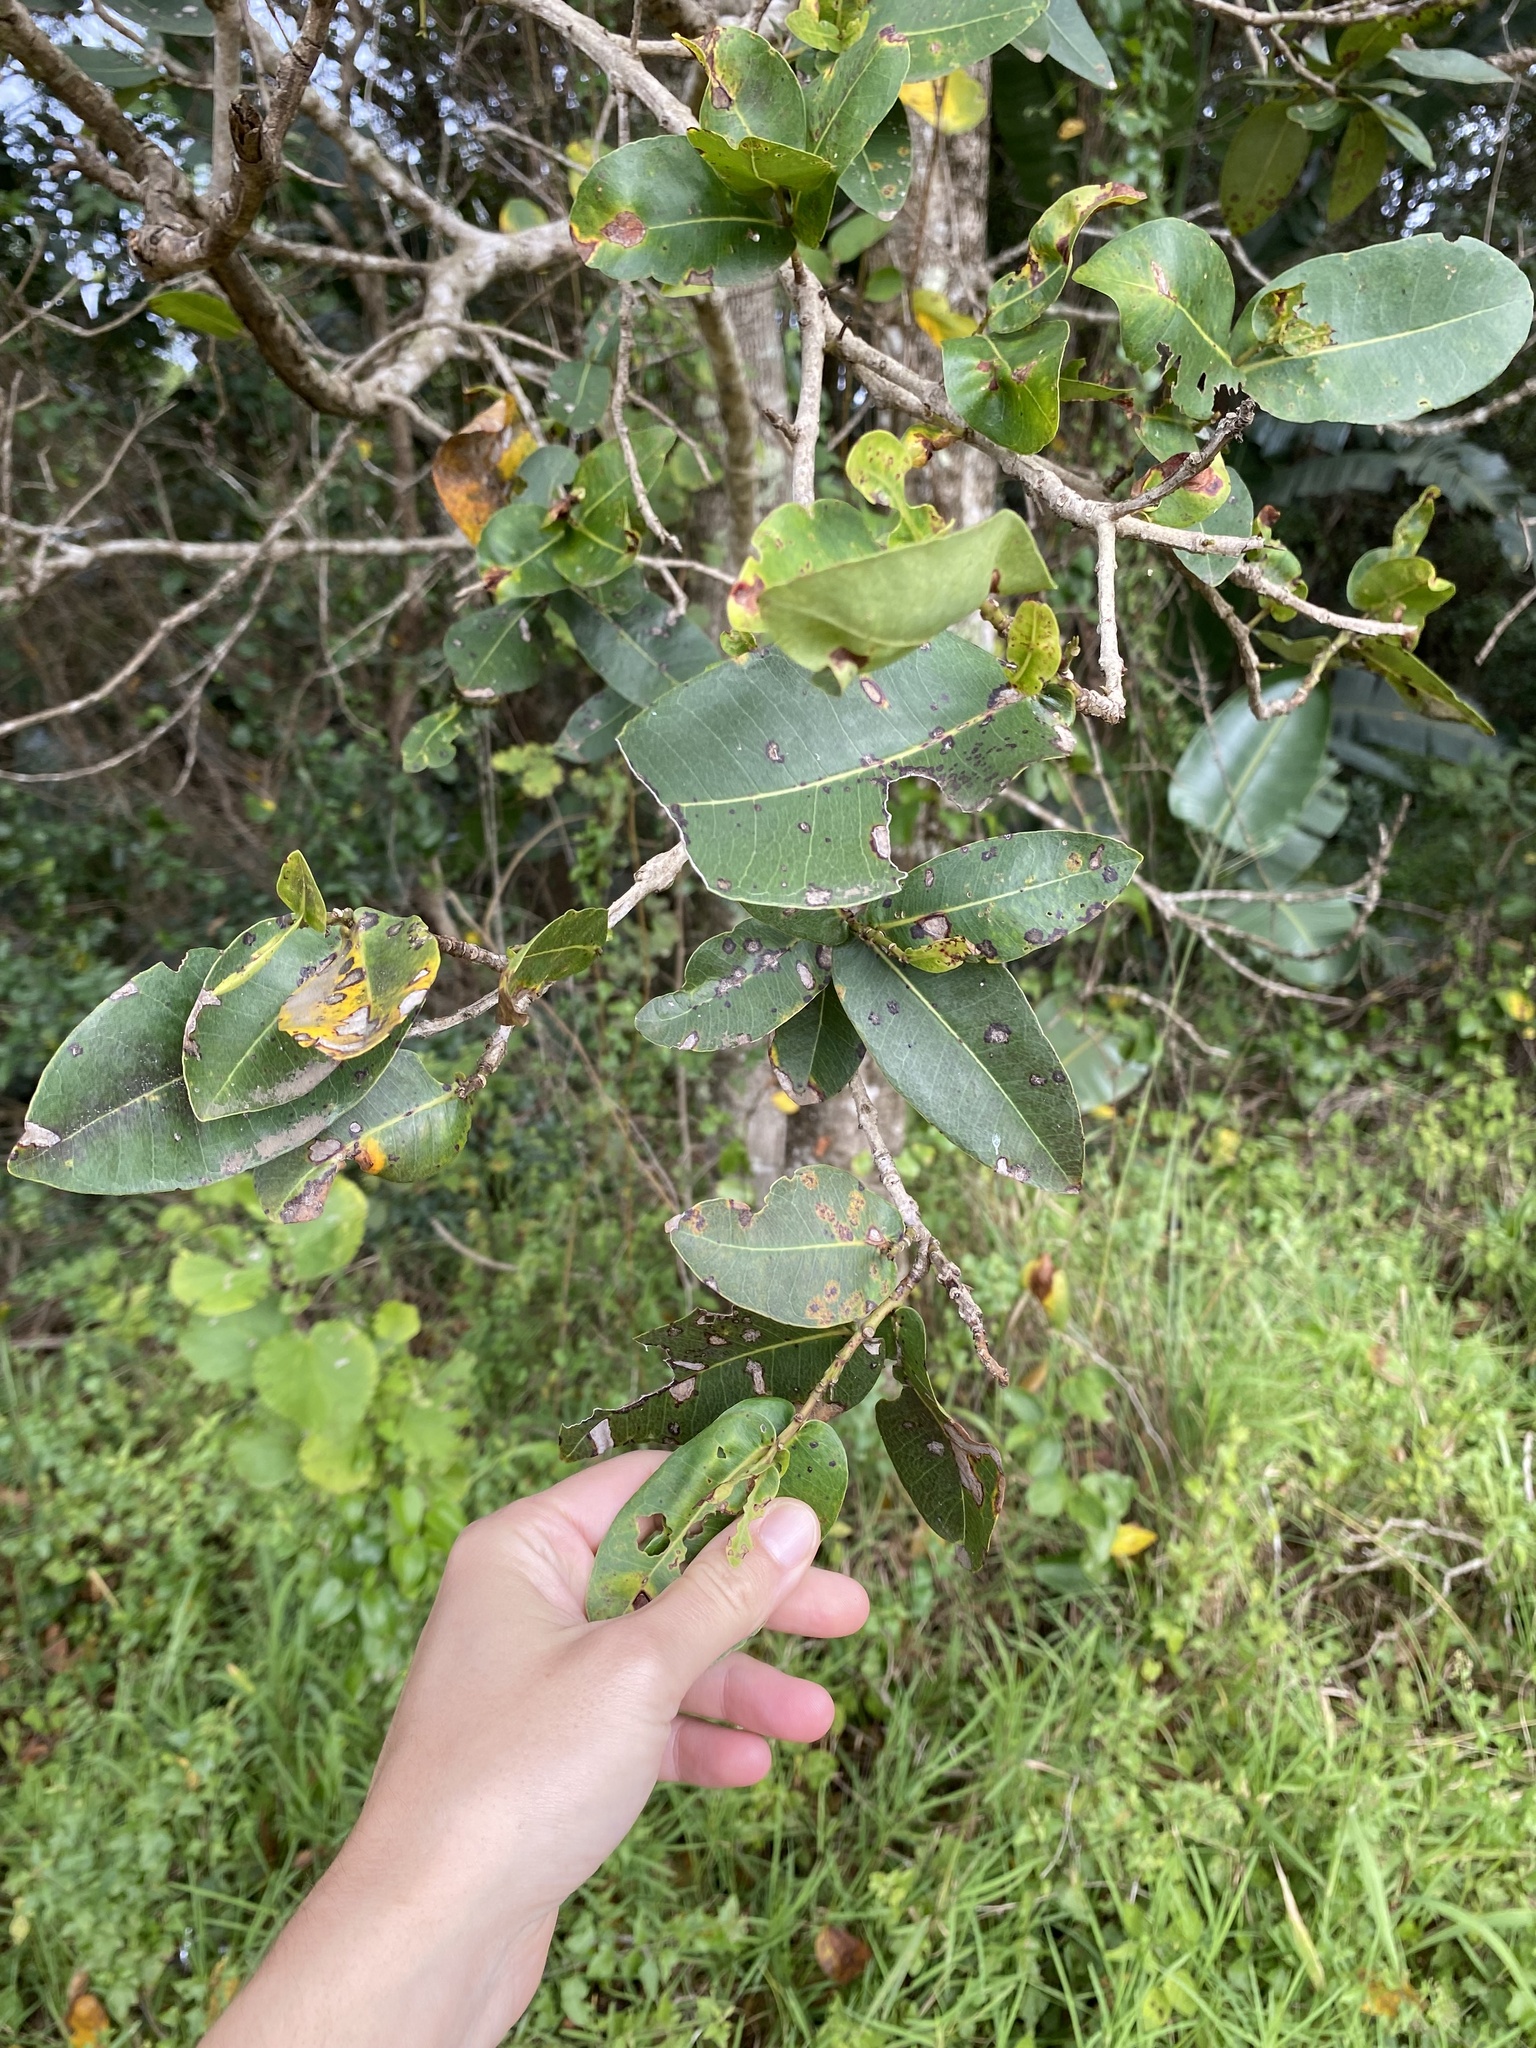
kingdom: Plantae
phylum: Tracheophyta
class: Magnoliopsida
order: Myrtales
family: Myrtaceae
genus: Syzygium
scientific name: Syzygium cordatum
